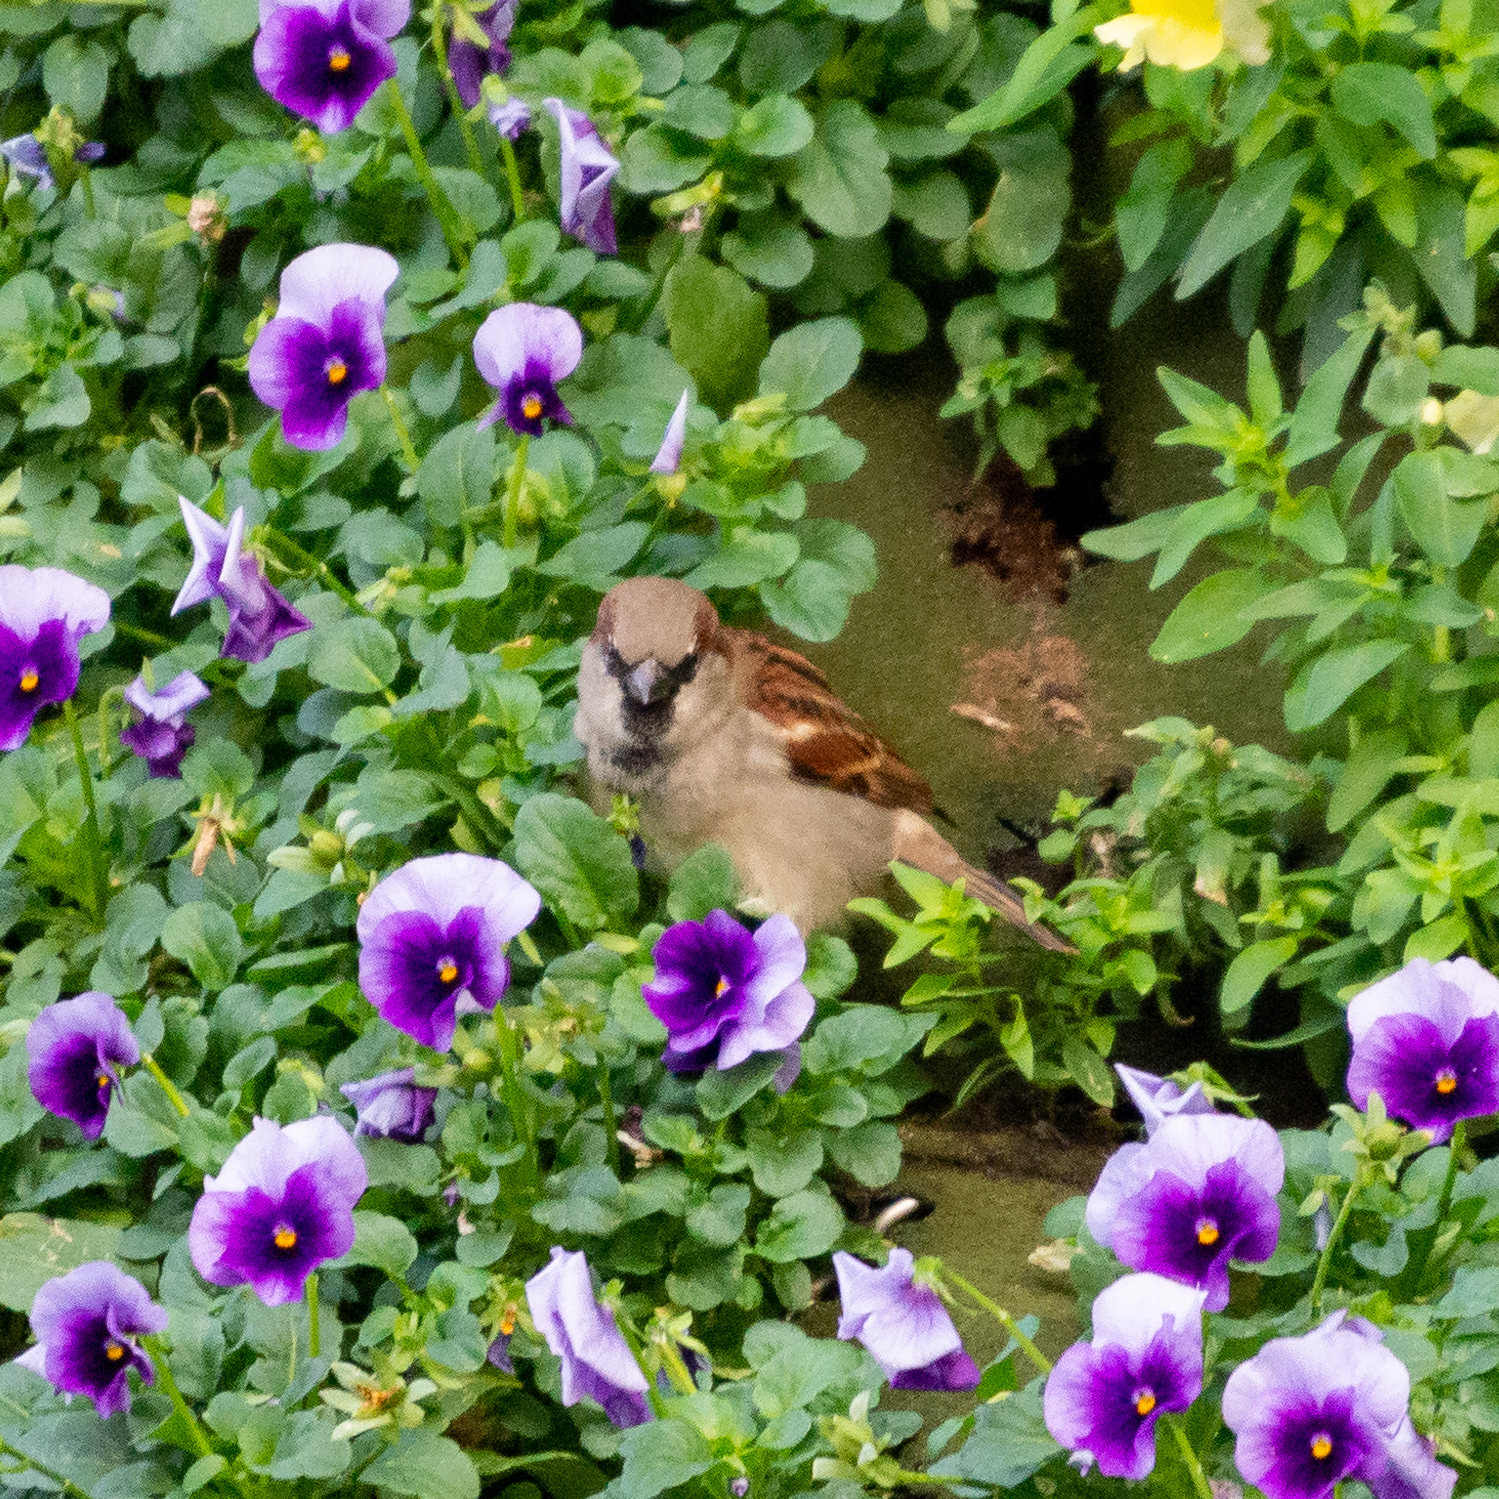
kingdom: Animalia
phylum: Chordata
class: Aves
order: Passeriformes
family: Passeridae
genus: Passer
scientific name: Passer domesticus
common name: House sparrow
